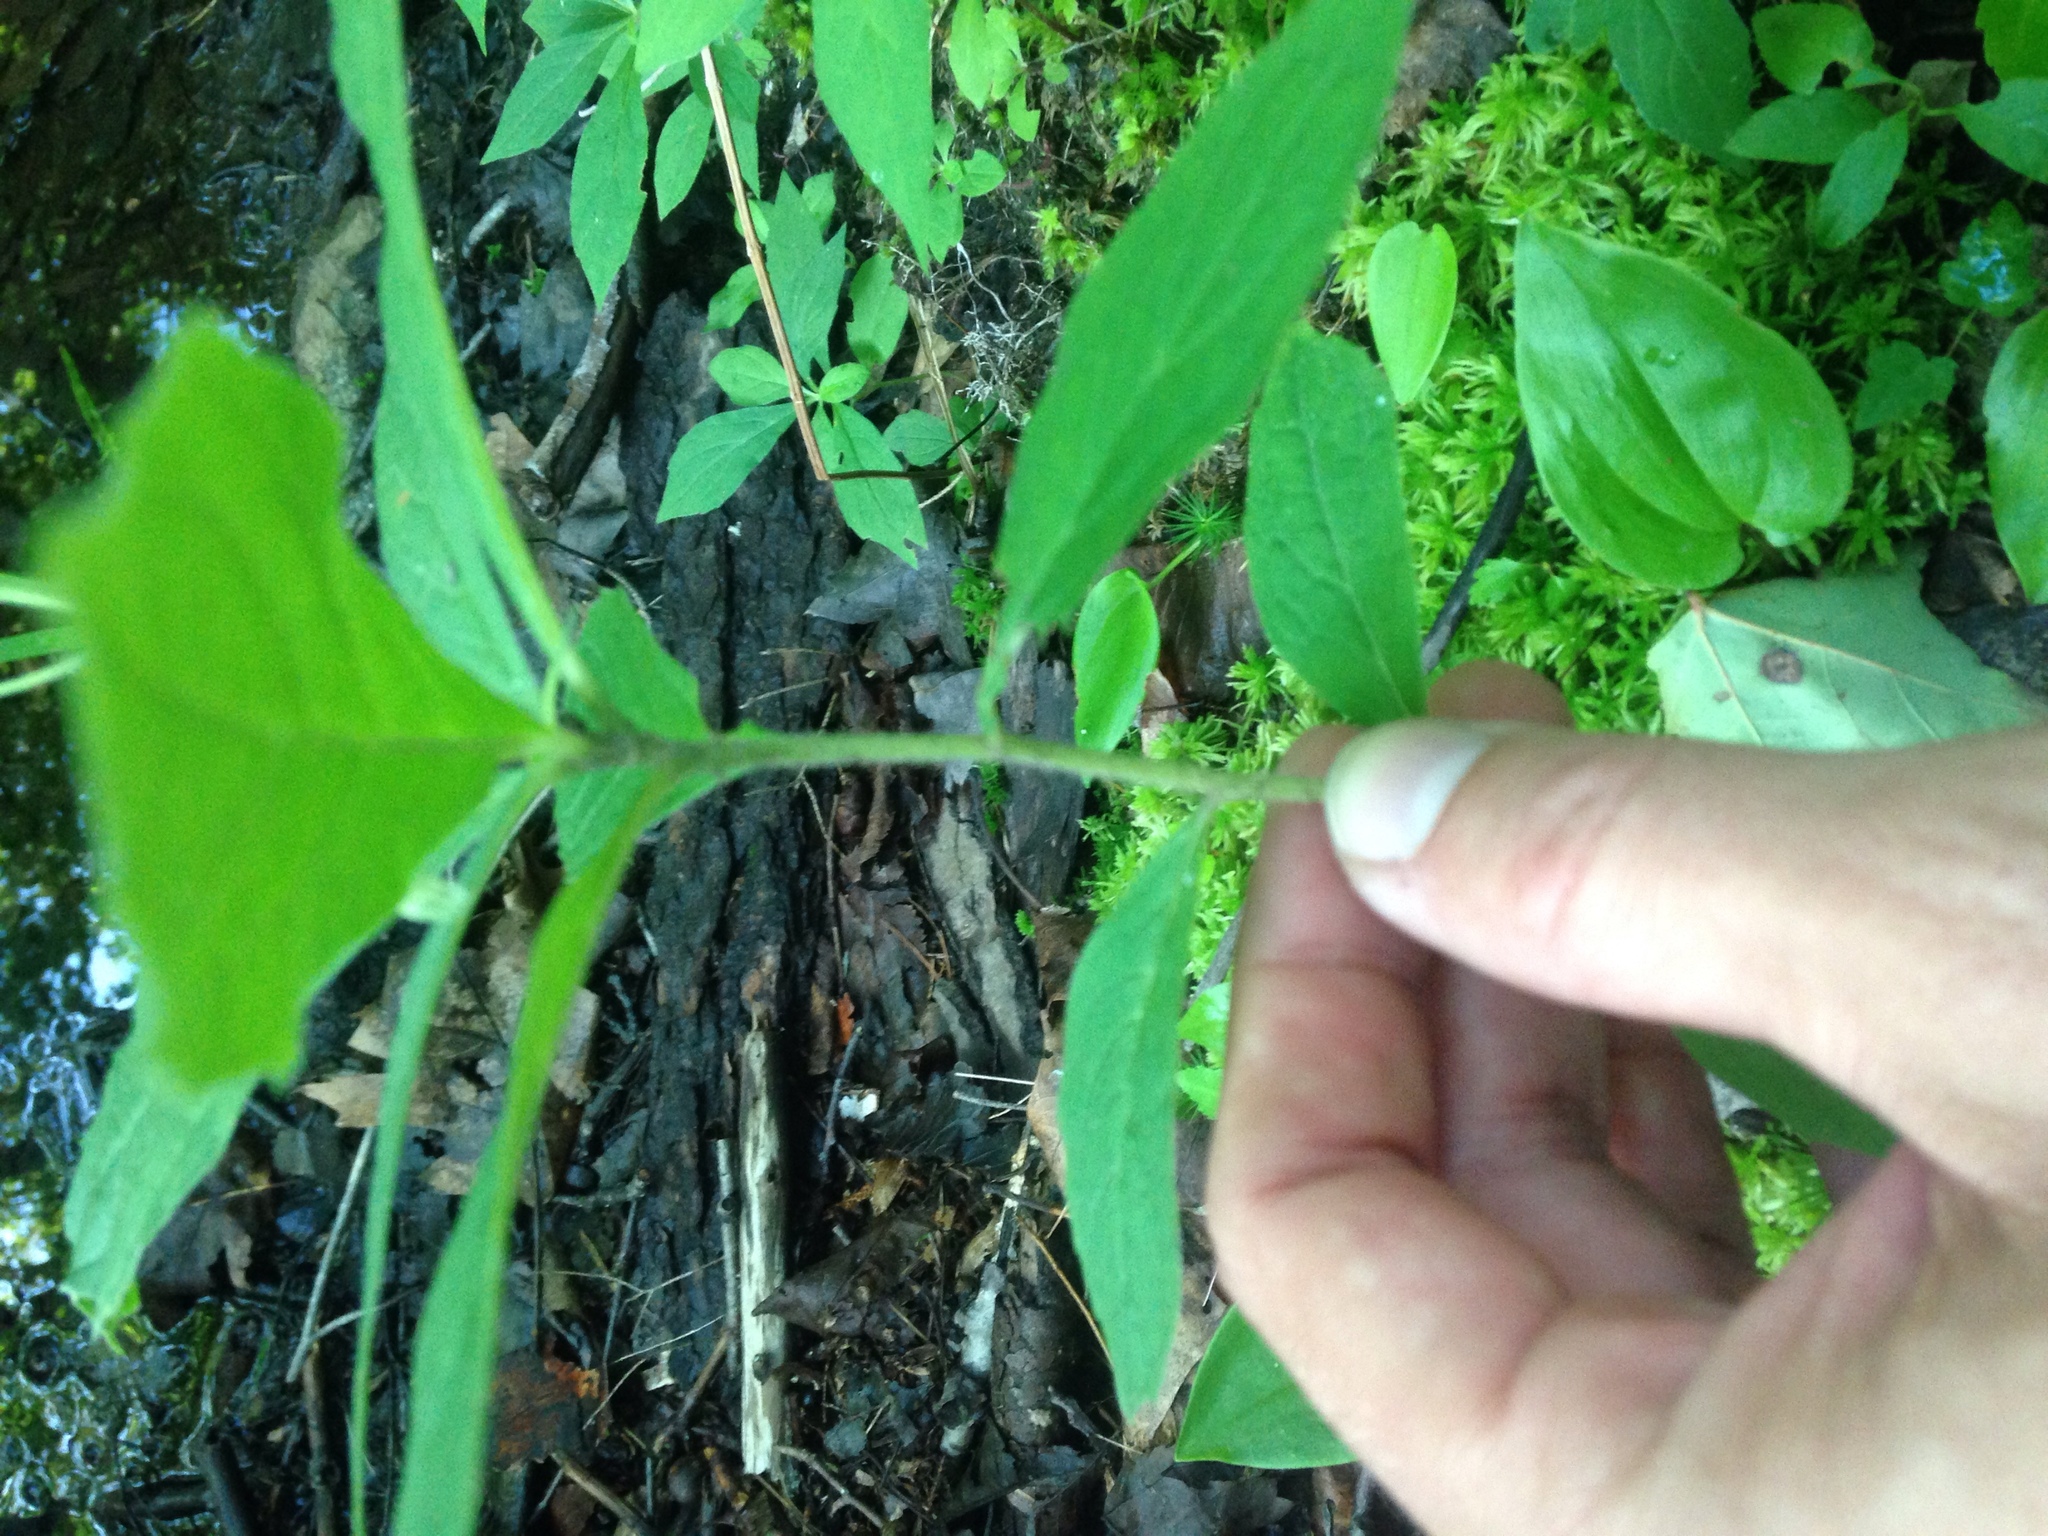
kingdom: Plantae
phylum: Tracheophyta
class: Magnoliopsida
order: Asterales
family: Asteraceae
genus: Oclemena
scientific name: Oclemena acuminata
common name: Mountain aster
